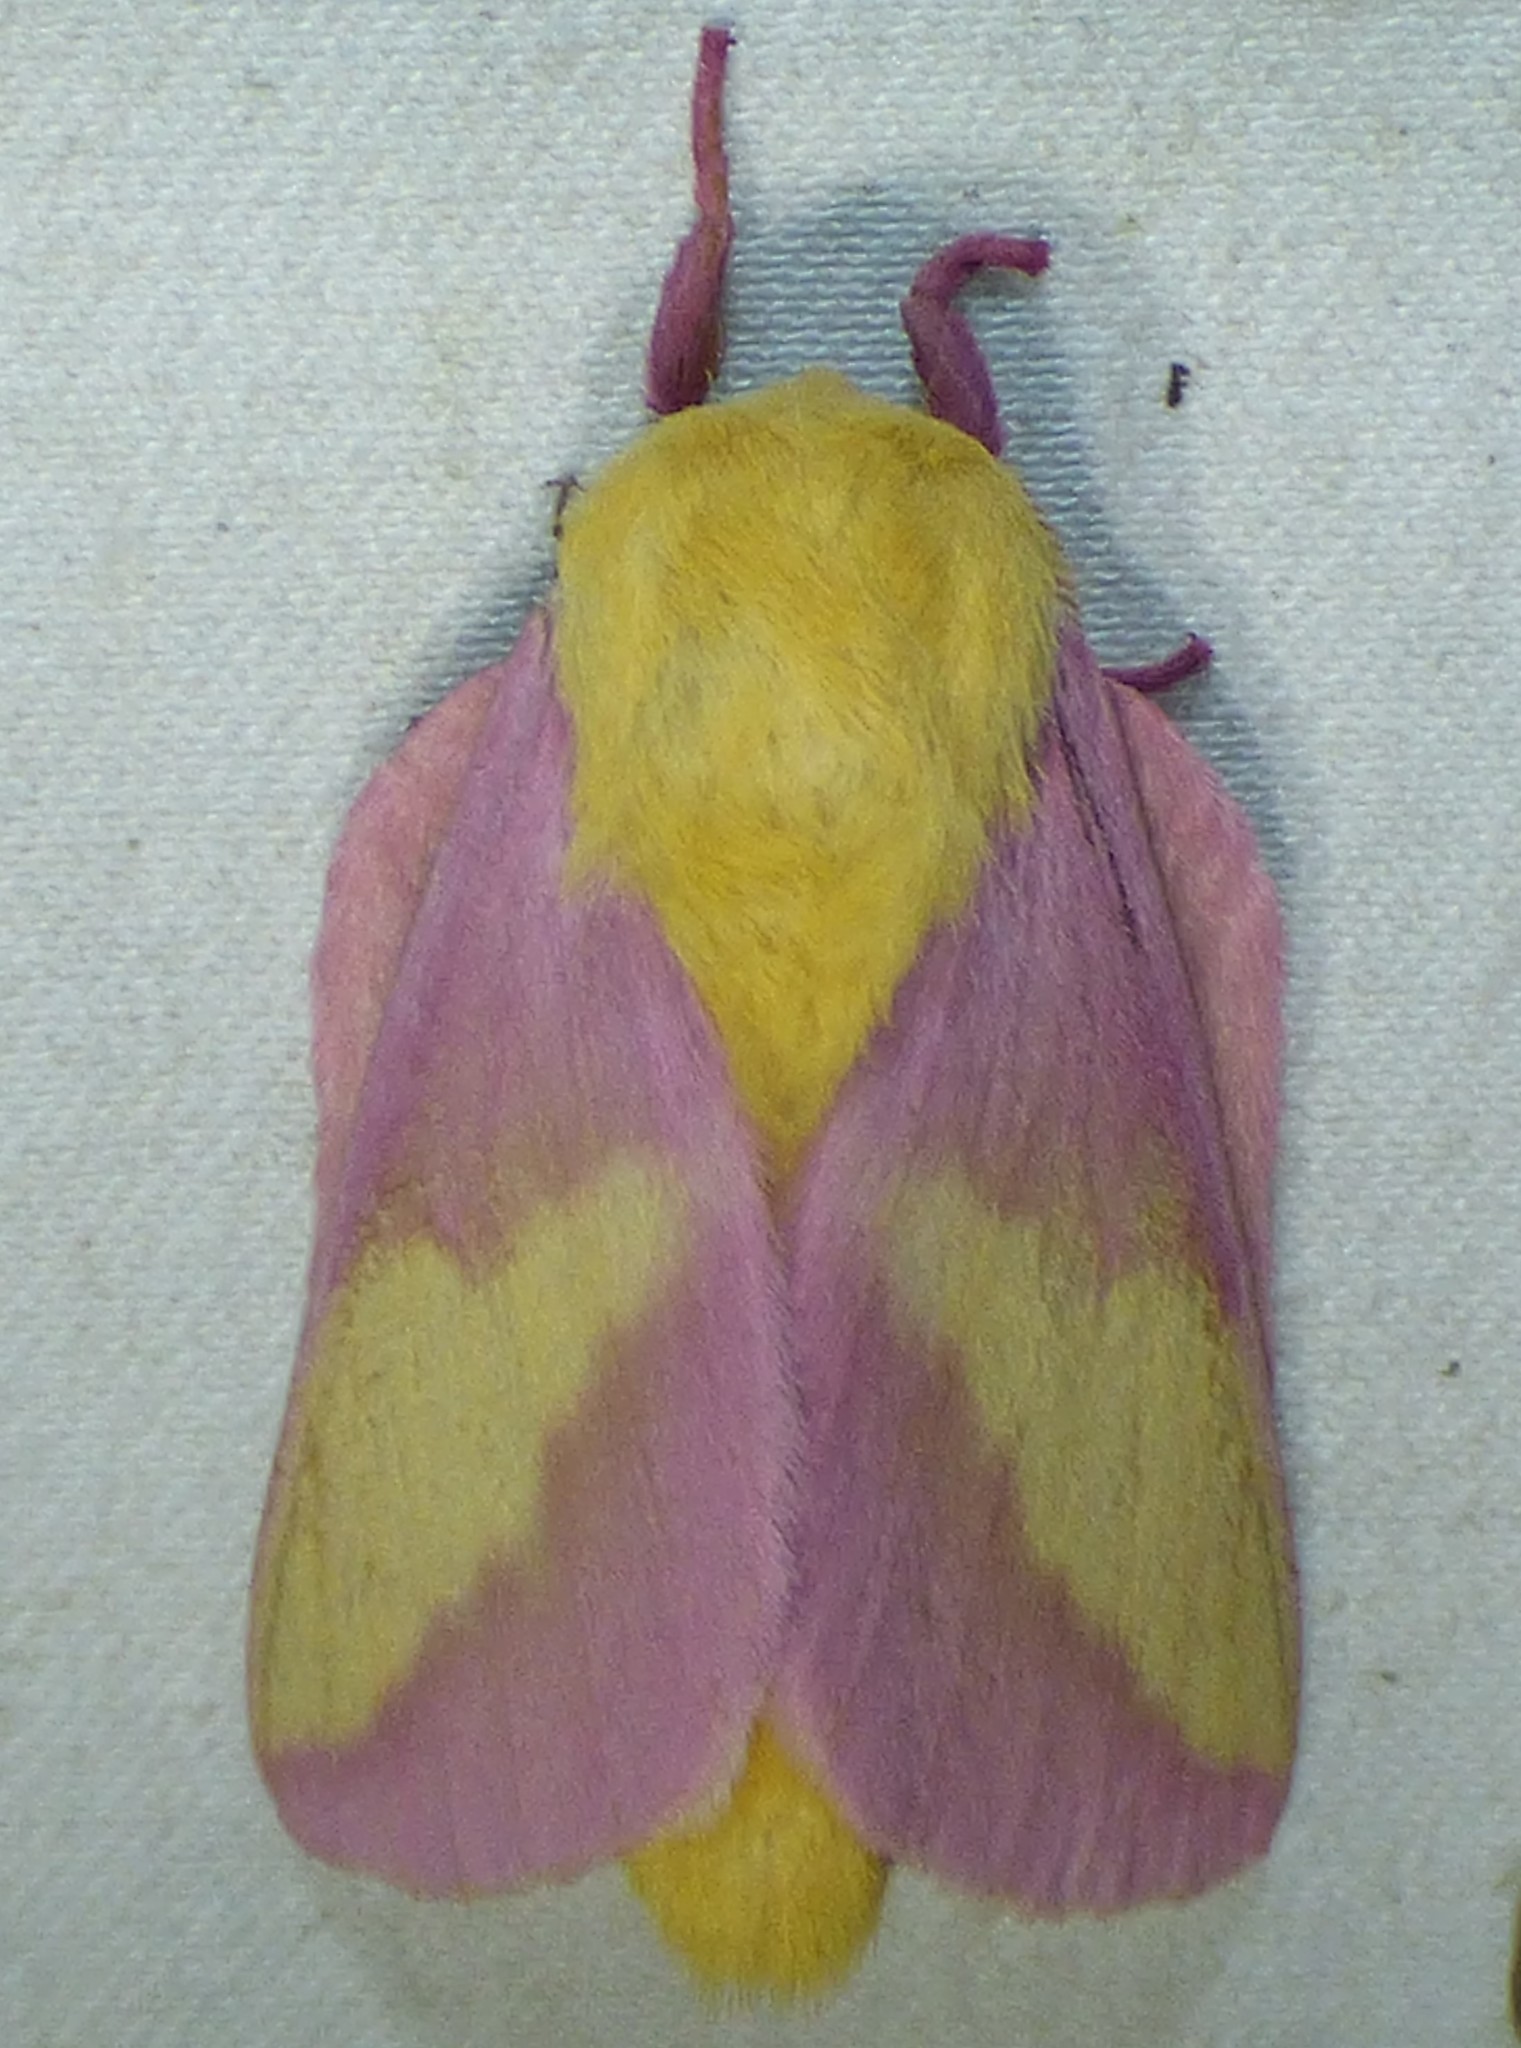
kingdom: Animalia
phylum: Arthropoda
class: Insecta
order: Lepidoptera
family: Saturniidae
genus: Dryocampa
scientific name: Dryocampa rubicunda
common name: Rosy maple moth
